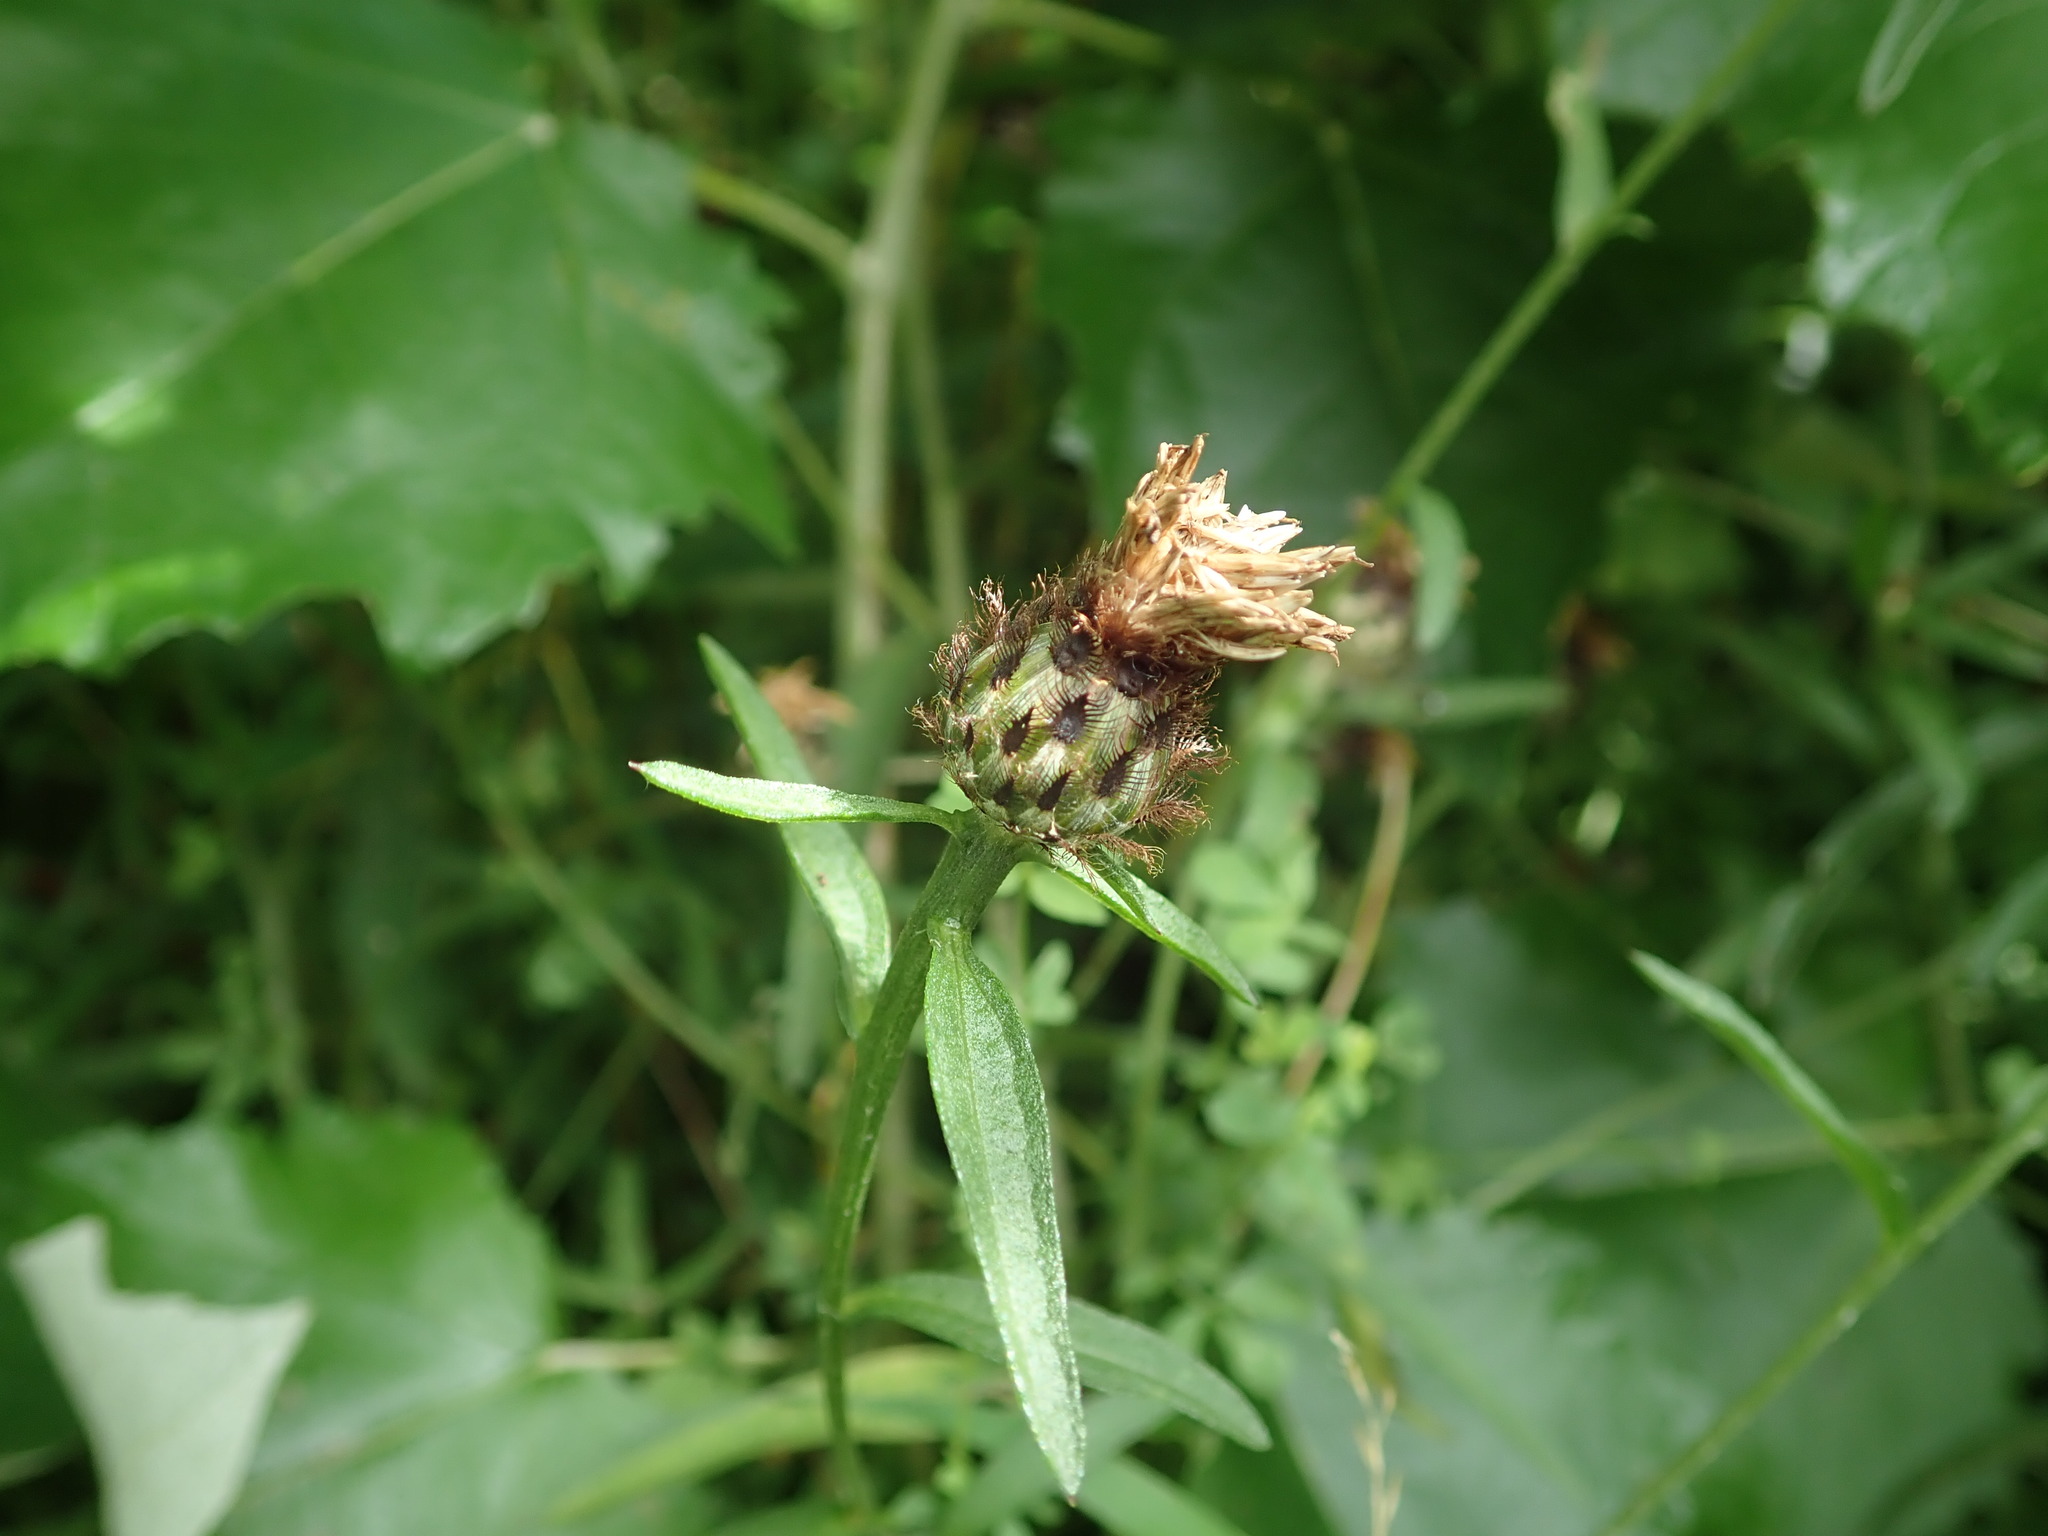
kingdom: Plantae
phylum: Tracheophyta
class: Magnoliopsida
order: Asterales
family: Asteraceae
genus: Centaurea
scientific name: Centaurea debeauxii
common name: Slender knapweed
